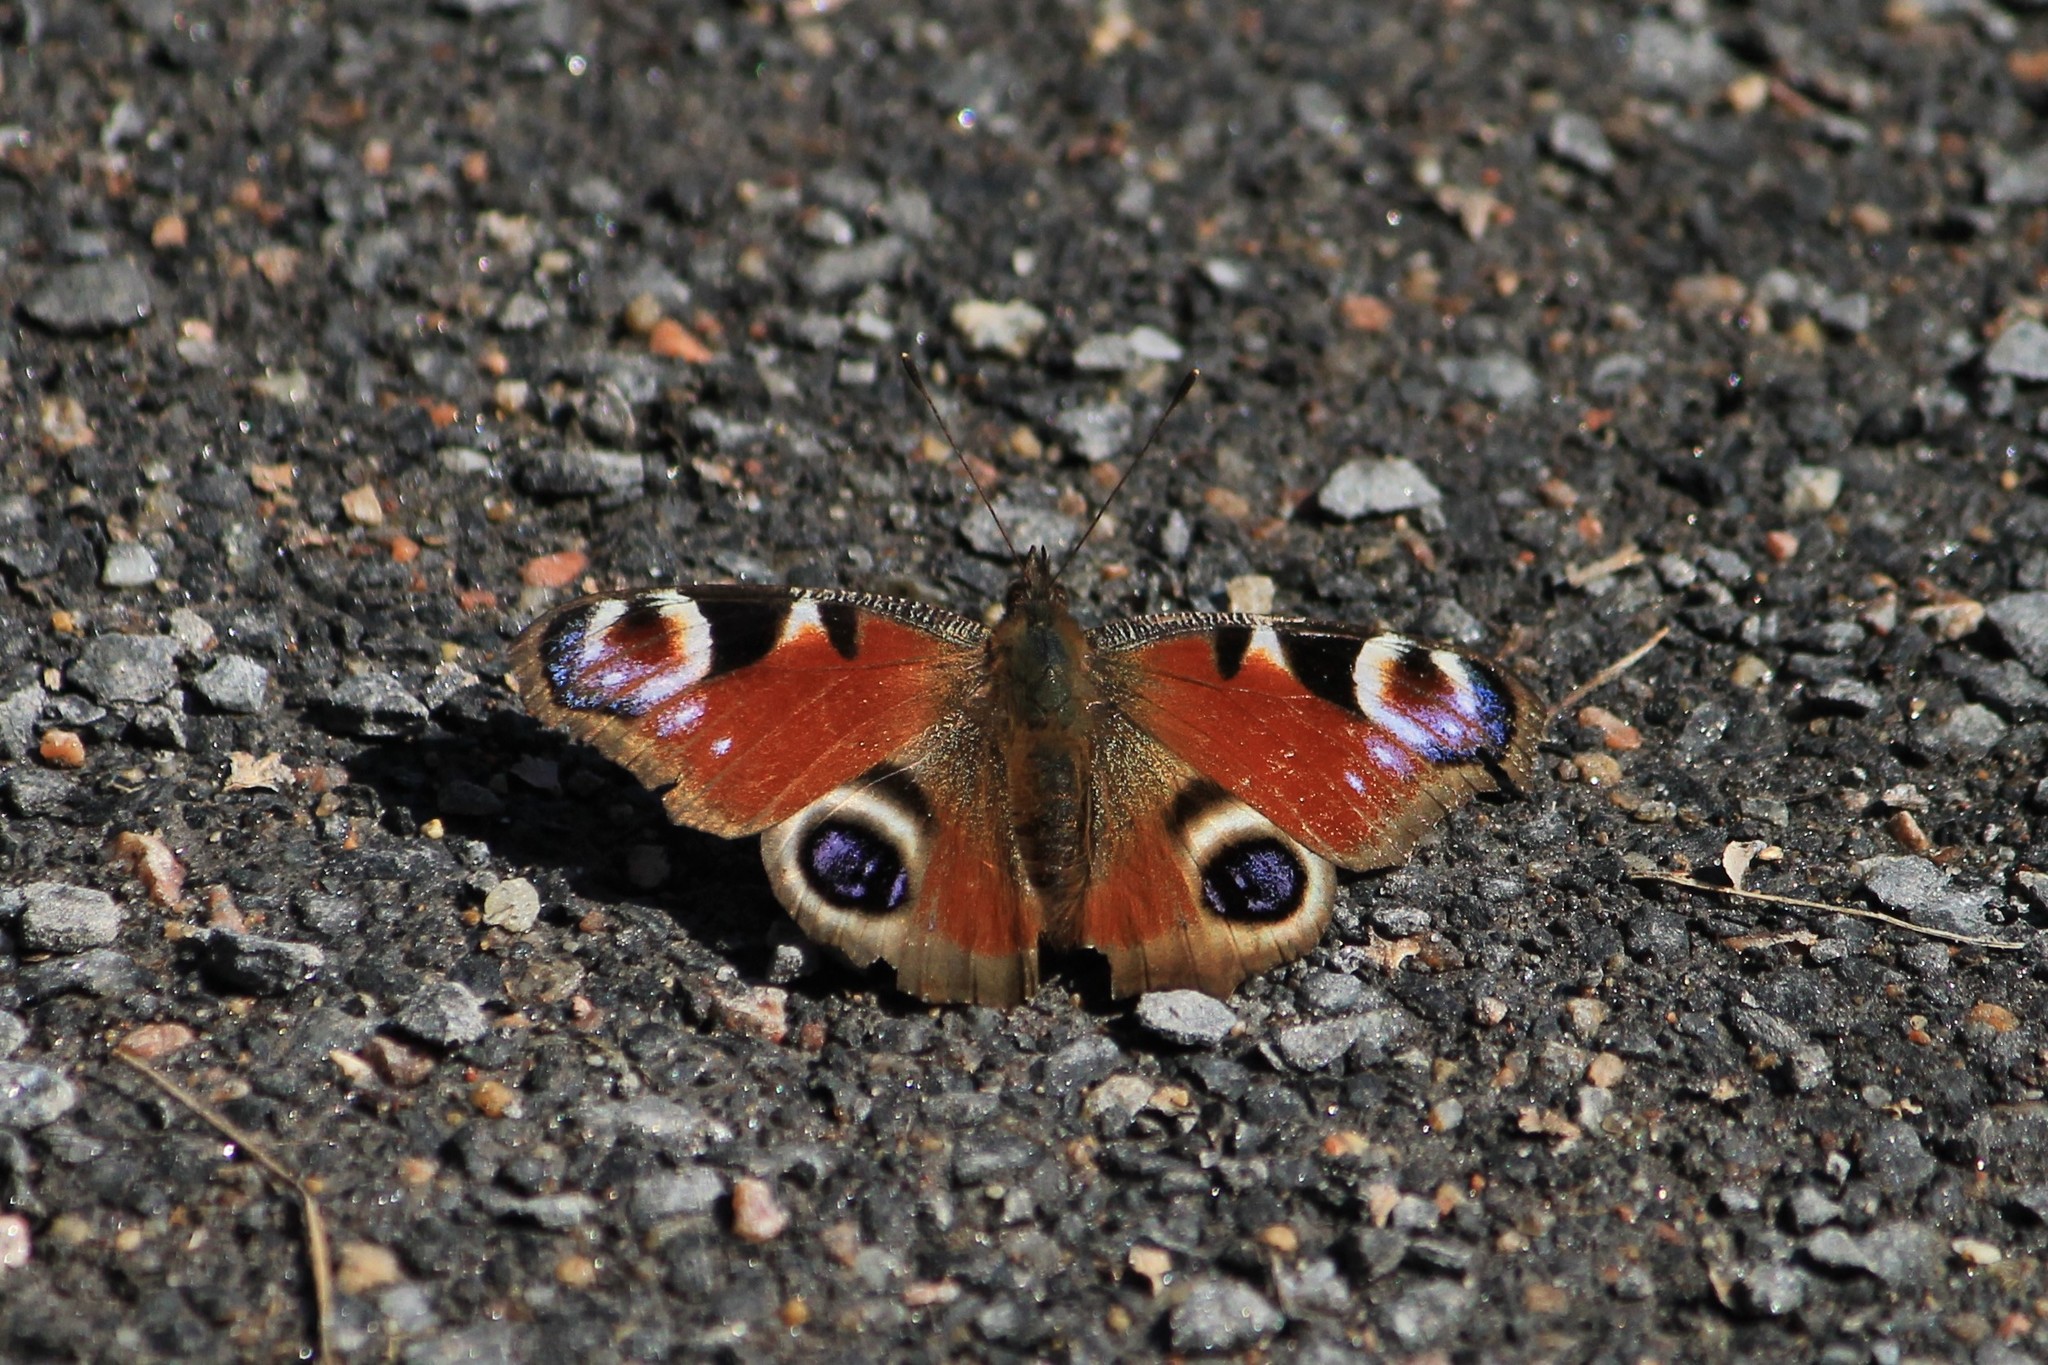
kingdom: Animalia
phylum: Arthropoda
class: Insecta
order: Lepidoptera
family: Nymphalidae
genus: Aglais
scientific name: Aglais io
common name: Peacock
